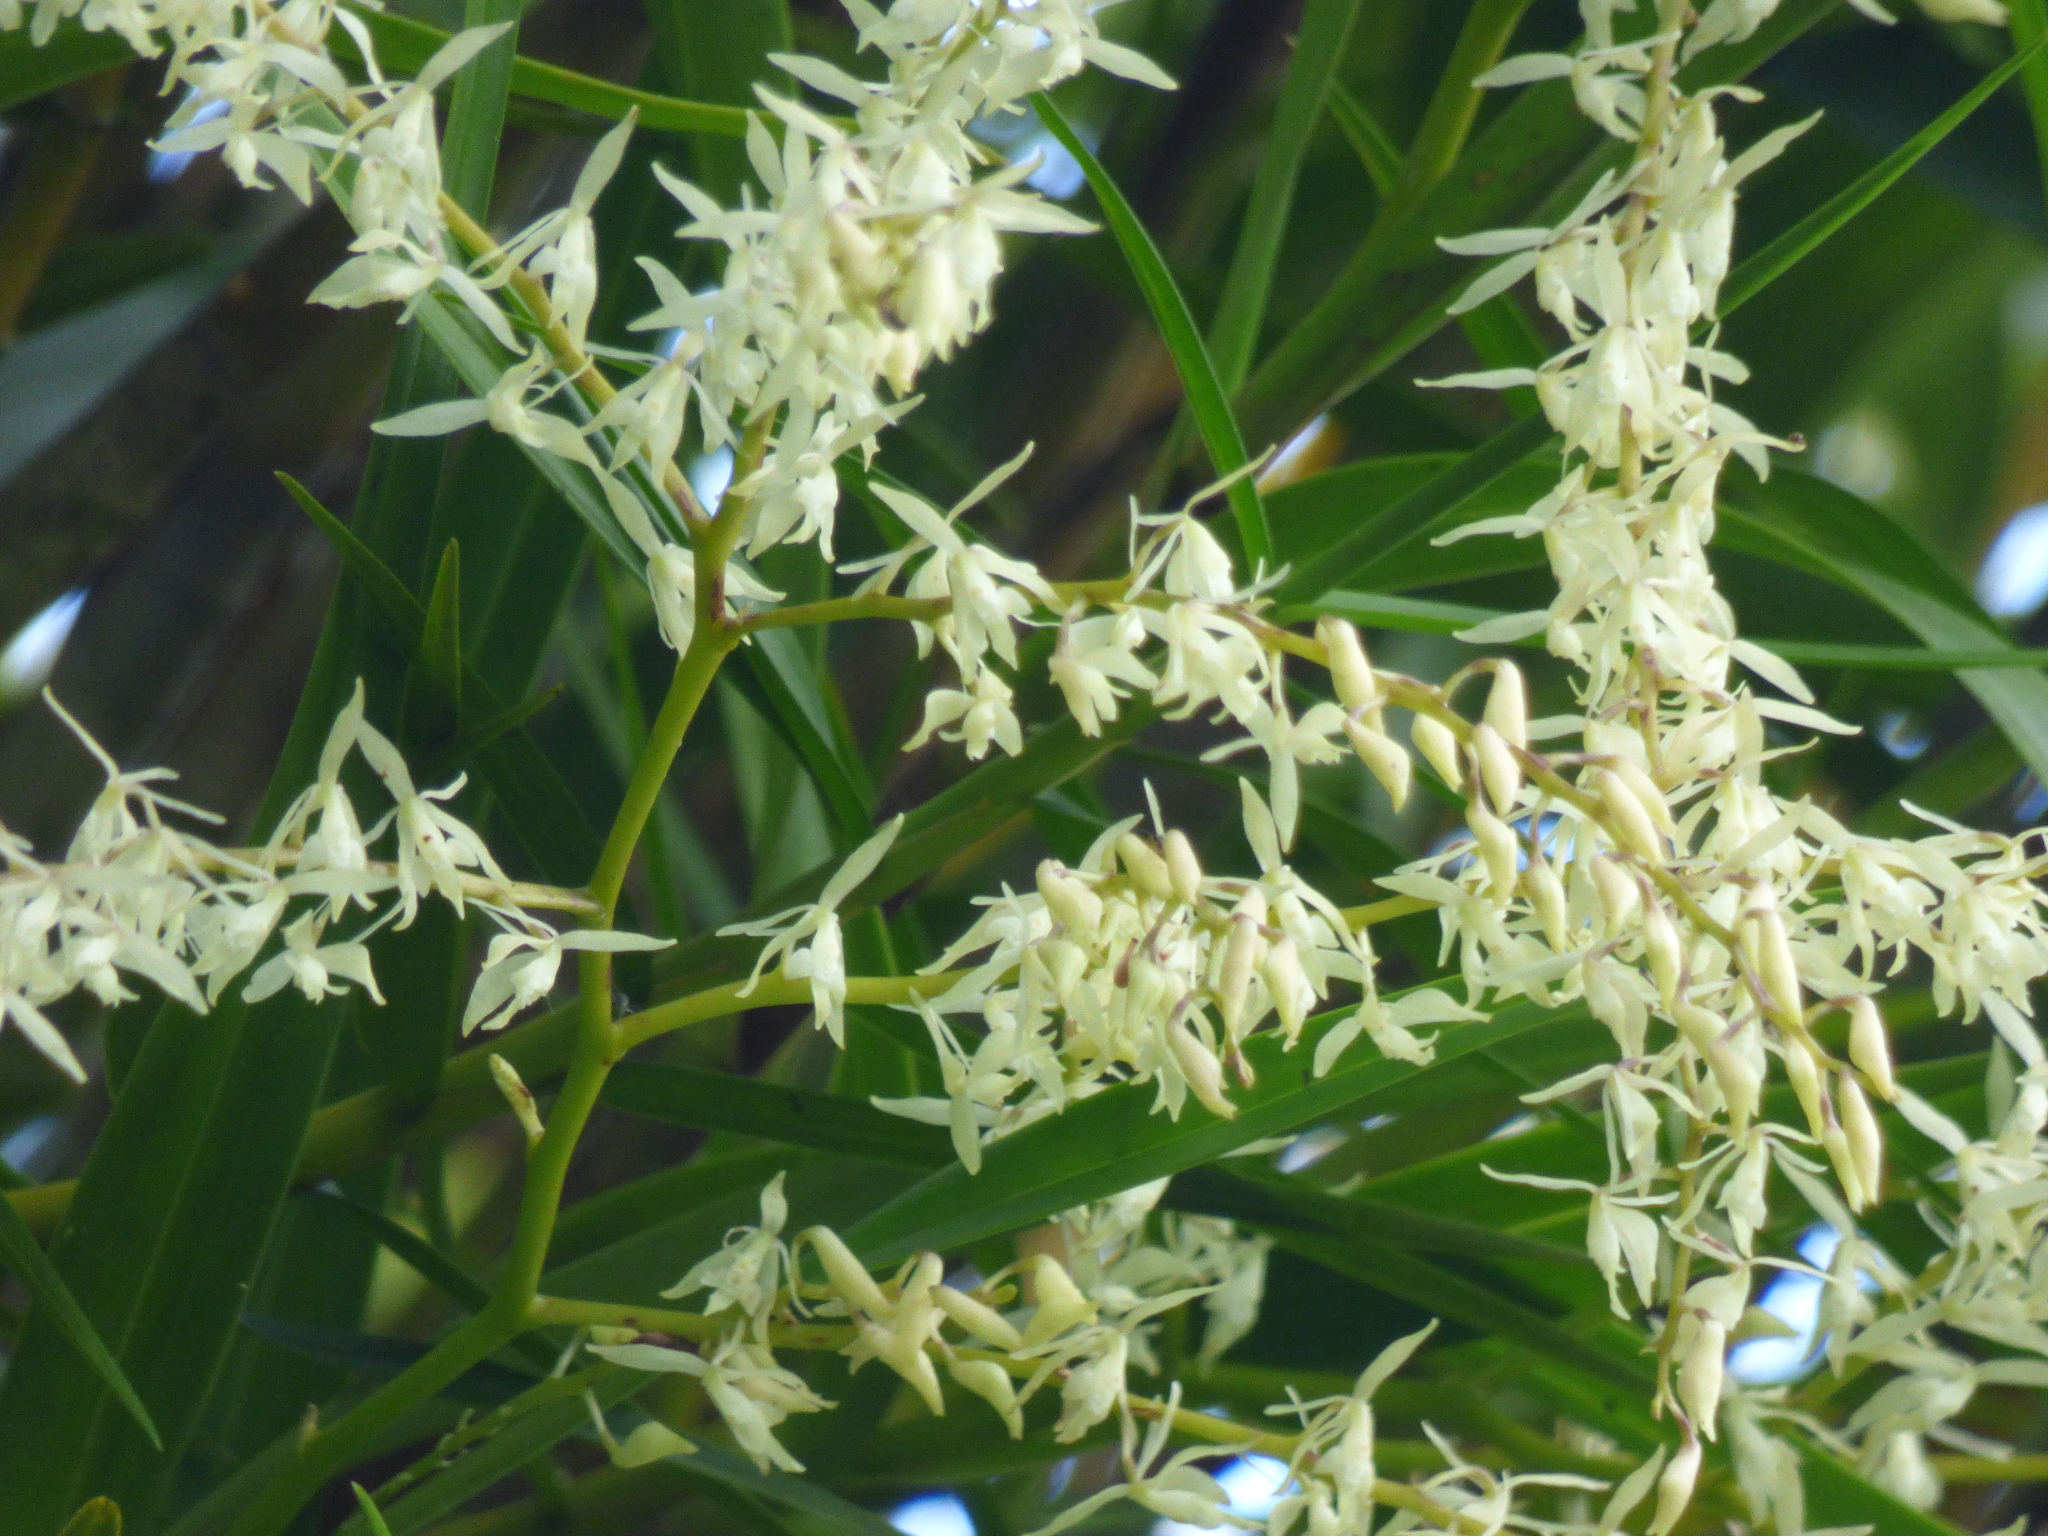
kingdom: Plantae
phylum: Tracheophyta
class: Liliopsida
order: Asparagales
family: Orchidaceae
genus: Epidendrum
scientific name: Epidendrum purum
